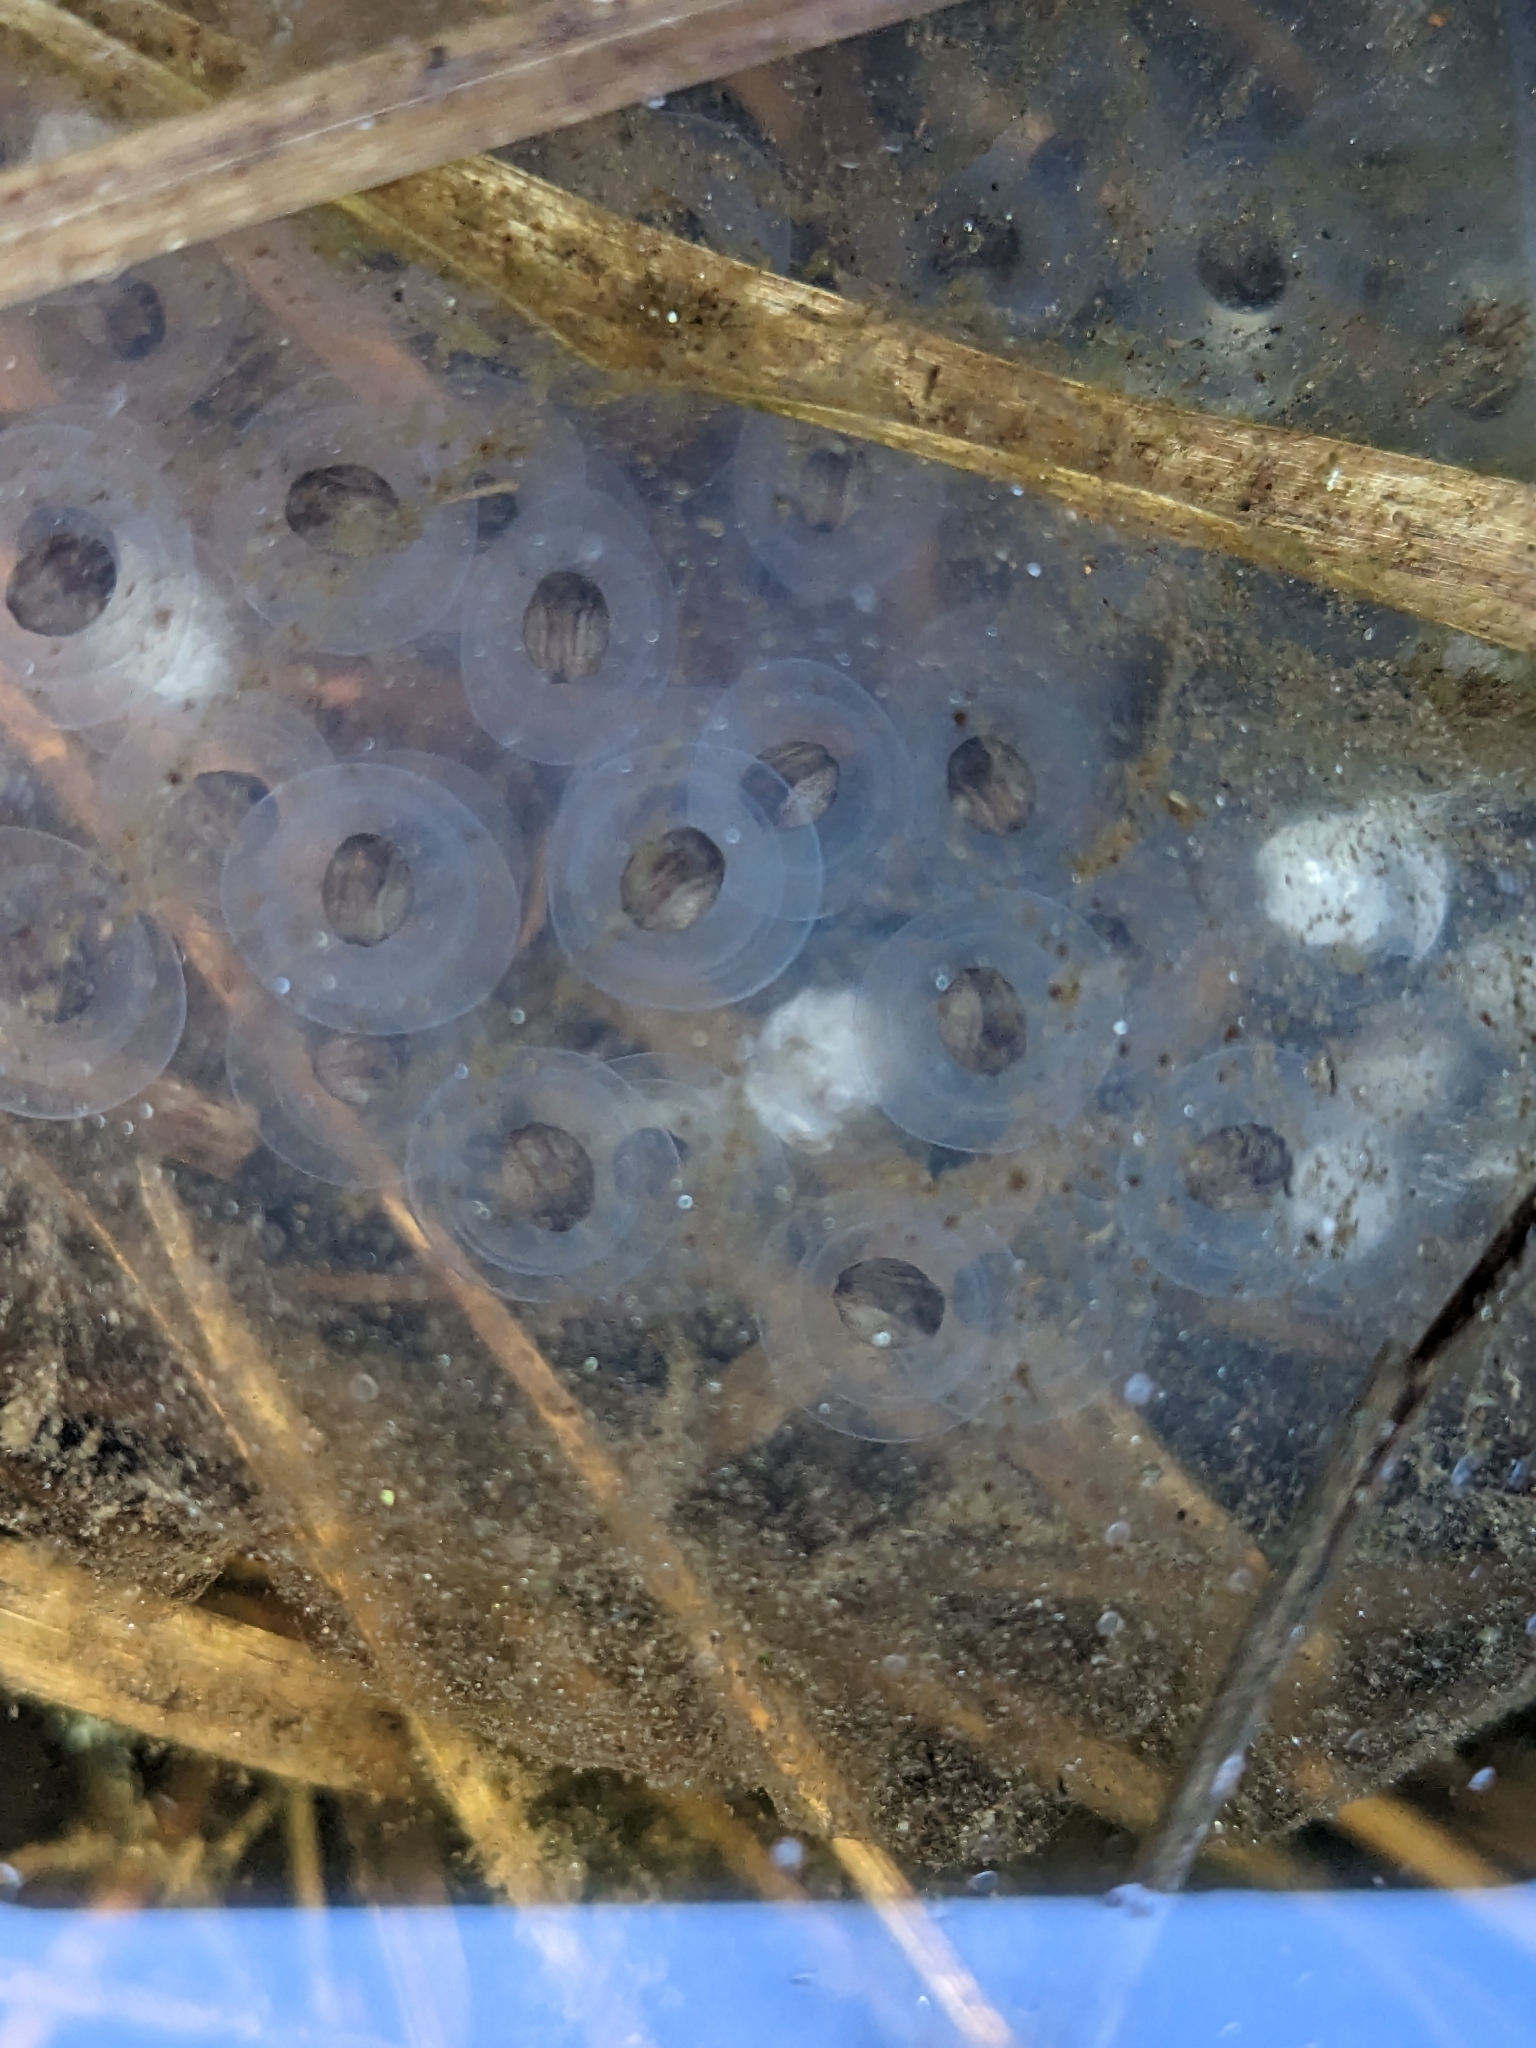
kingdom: Animalia
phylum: Chordata
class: Amphibia
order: Caudata
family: Ambystomatidae
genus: Ambystoma
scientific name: Ambystoma maculatum
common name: Spotted salamander
